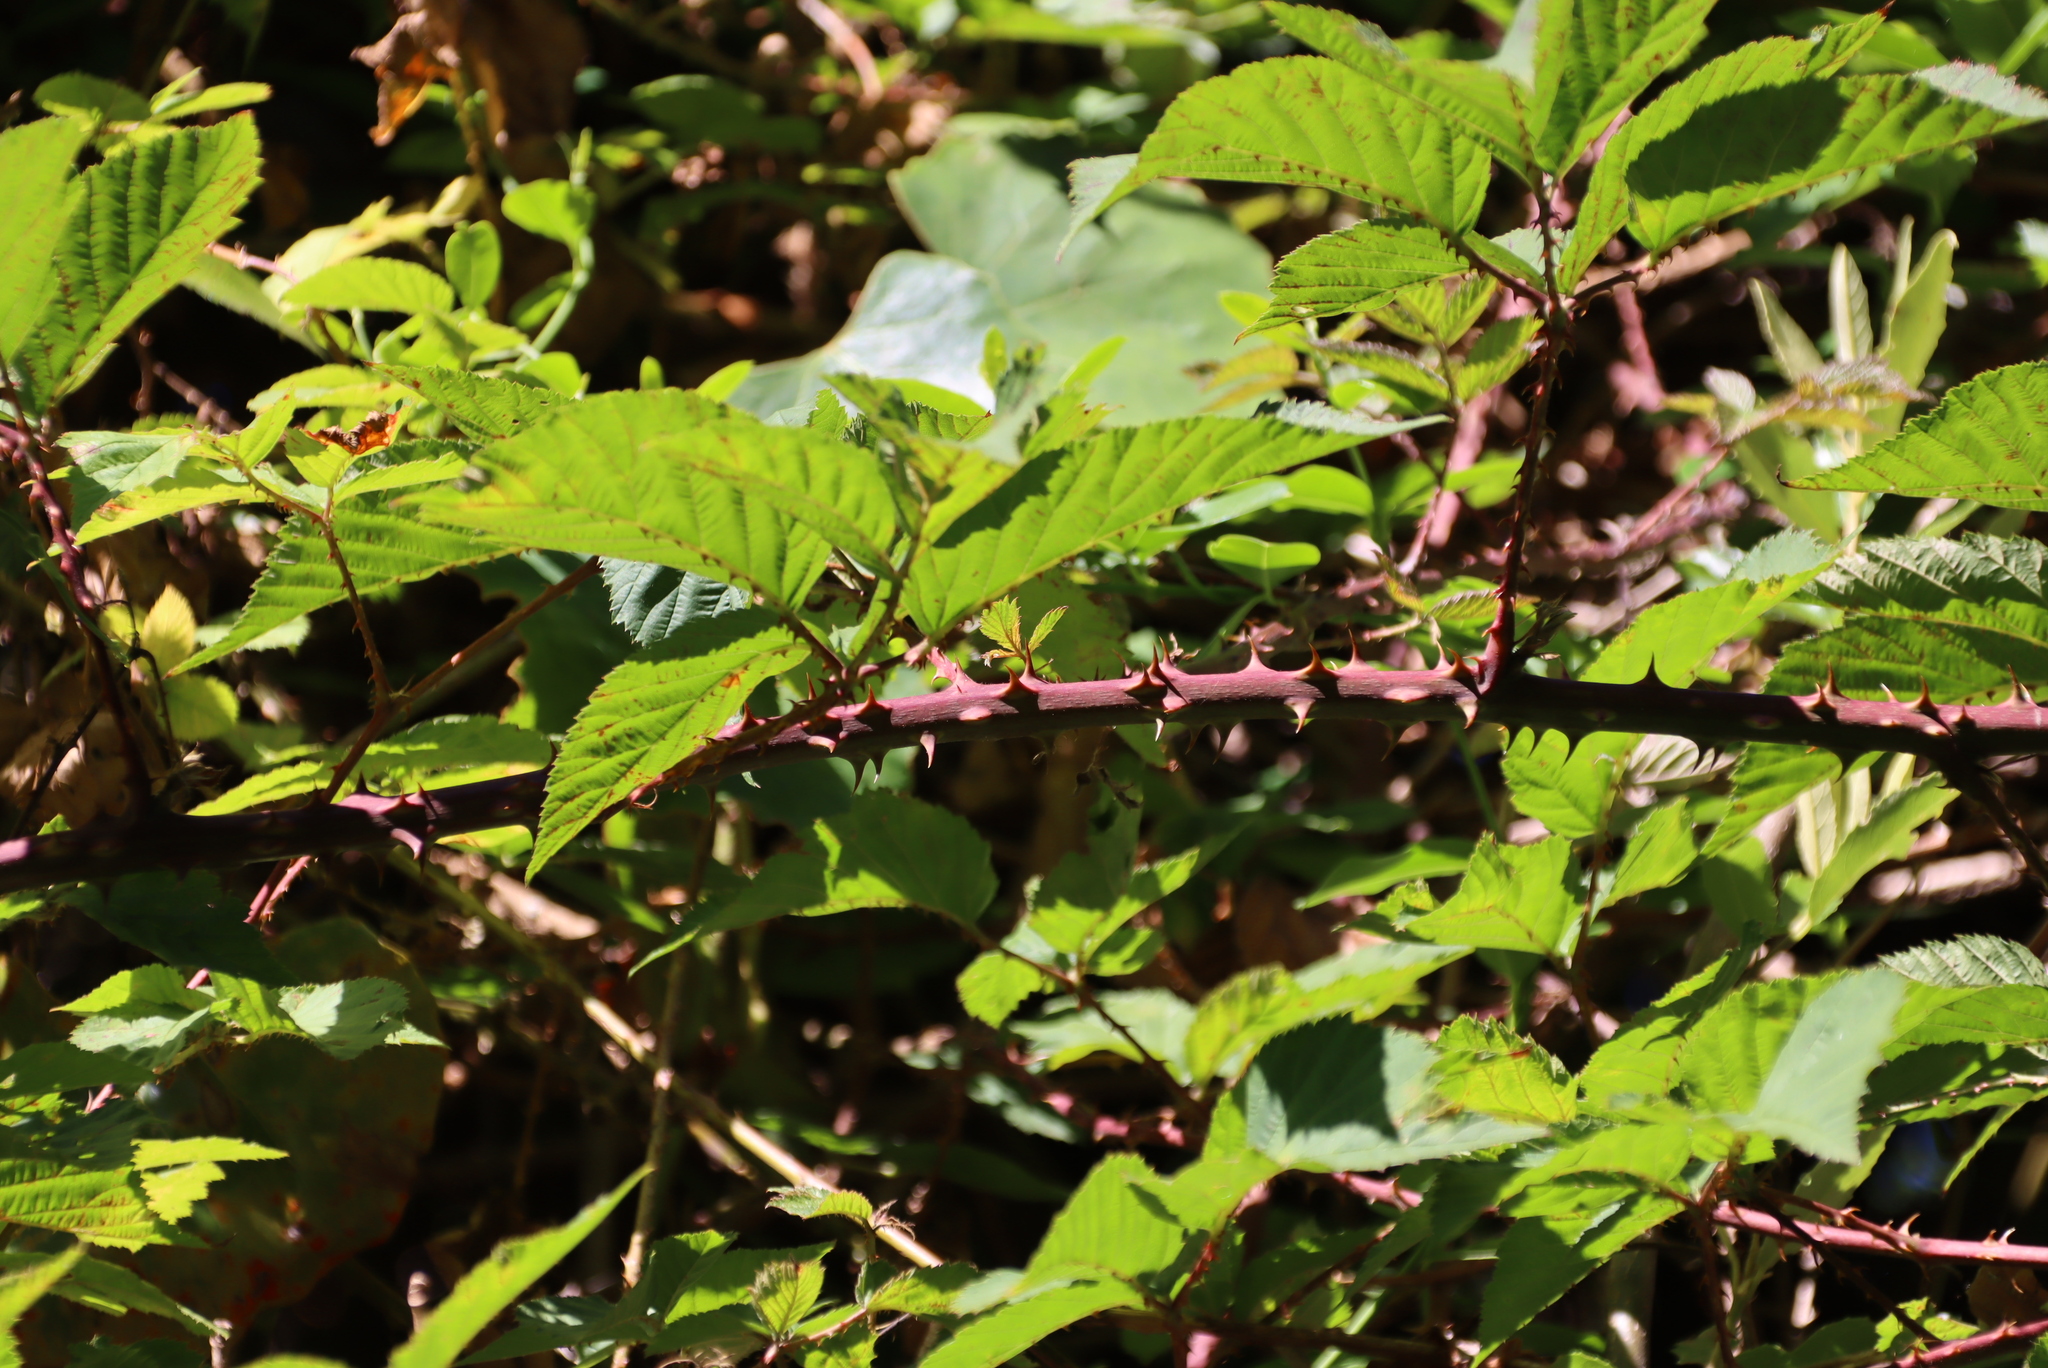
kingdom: Plantae
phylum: Tracheophyta
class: Magnoliopsida
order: Rosales
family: Rosaceae
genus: Rubus
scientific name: Rubus fultus
